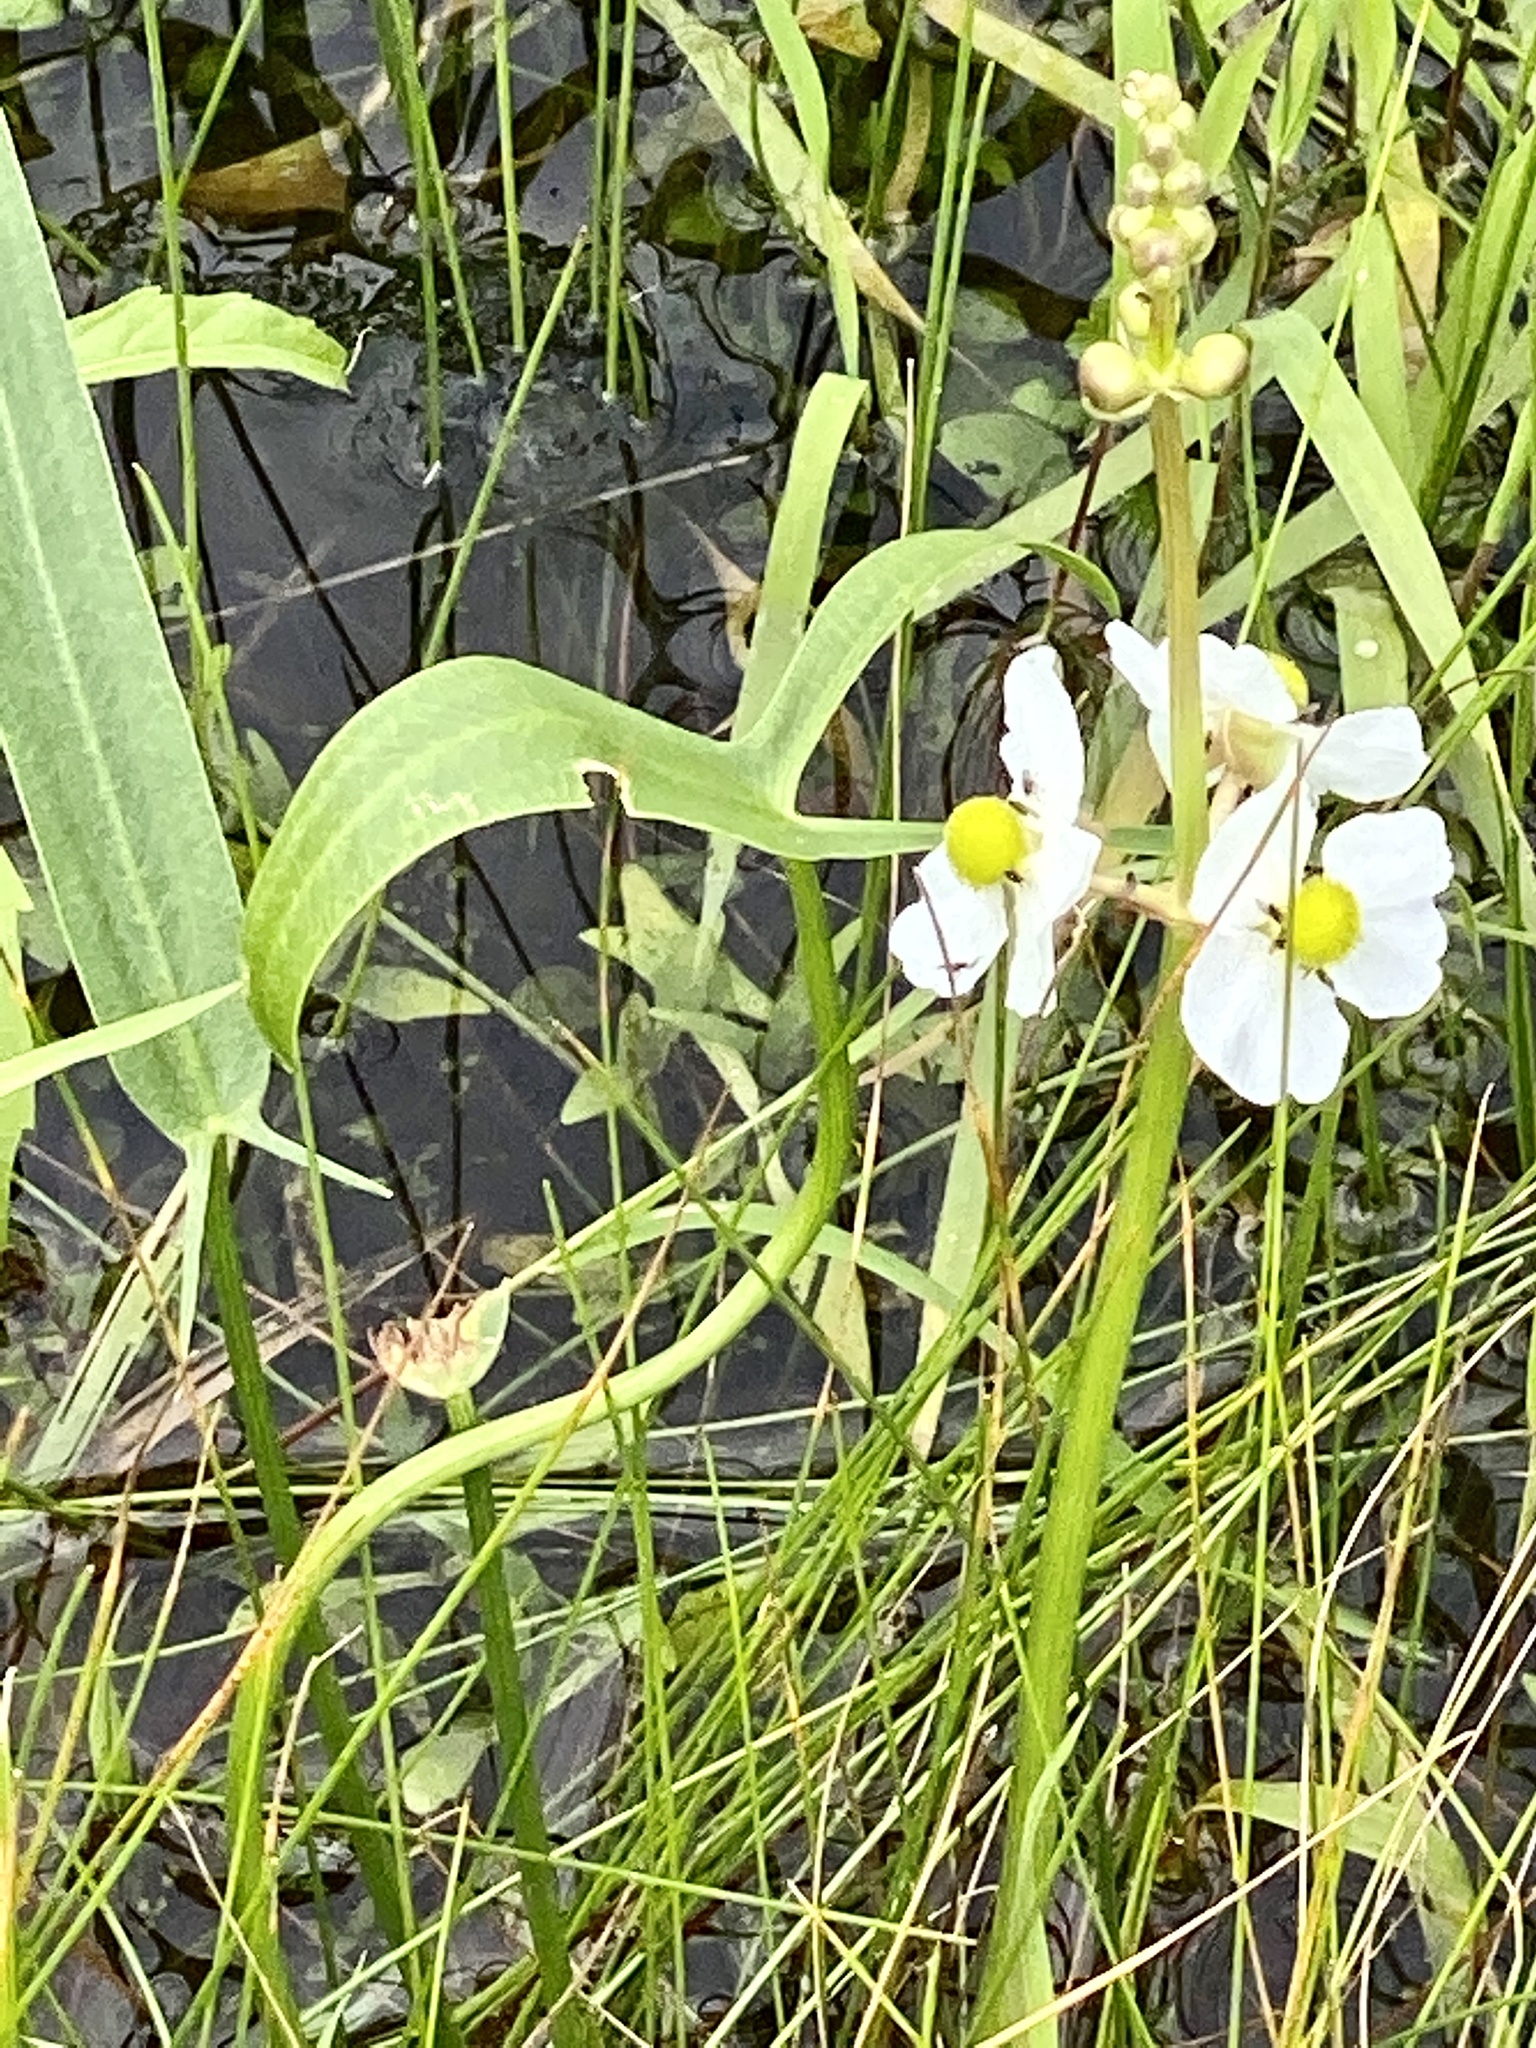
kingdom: Plantae
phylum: Tracheophyta
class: Liliopsida
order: Alismatales
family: Alismataceae
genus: Sagittaria
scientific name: Sagittaria latifolia
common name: Duck-potato
